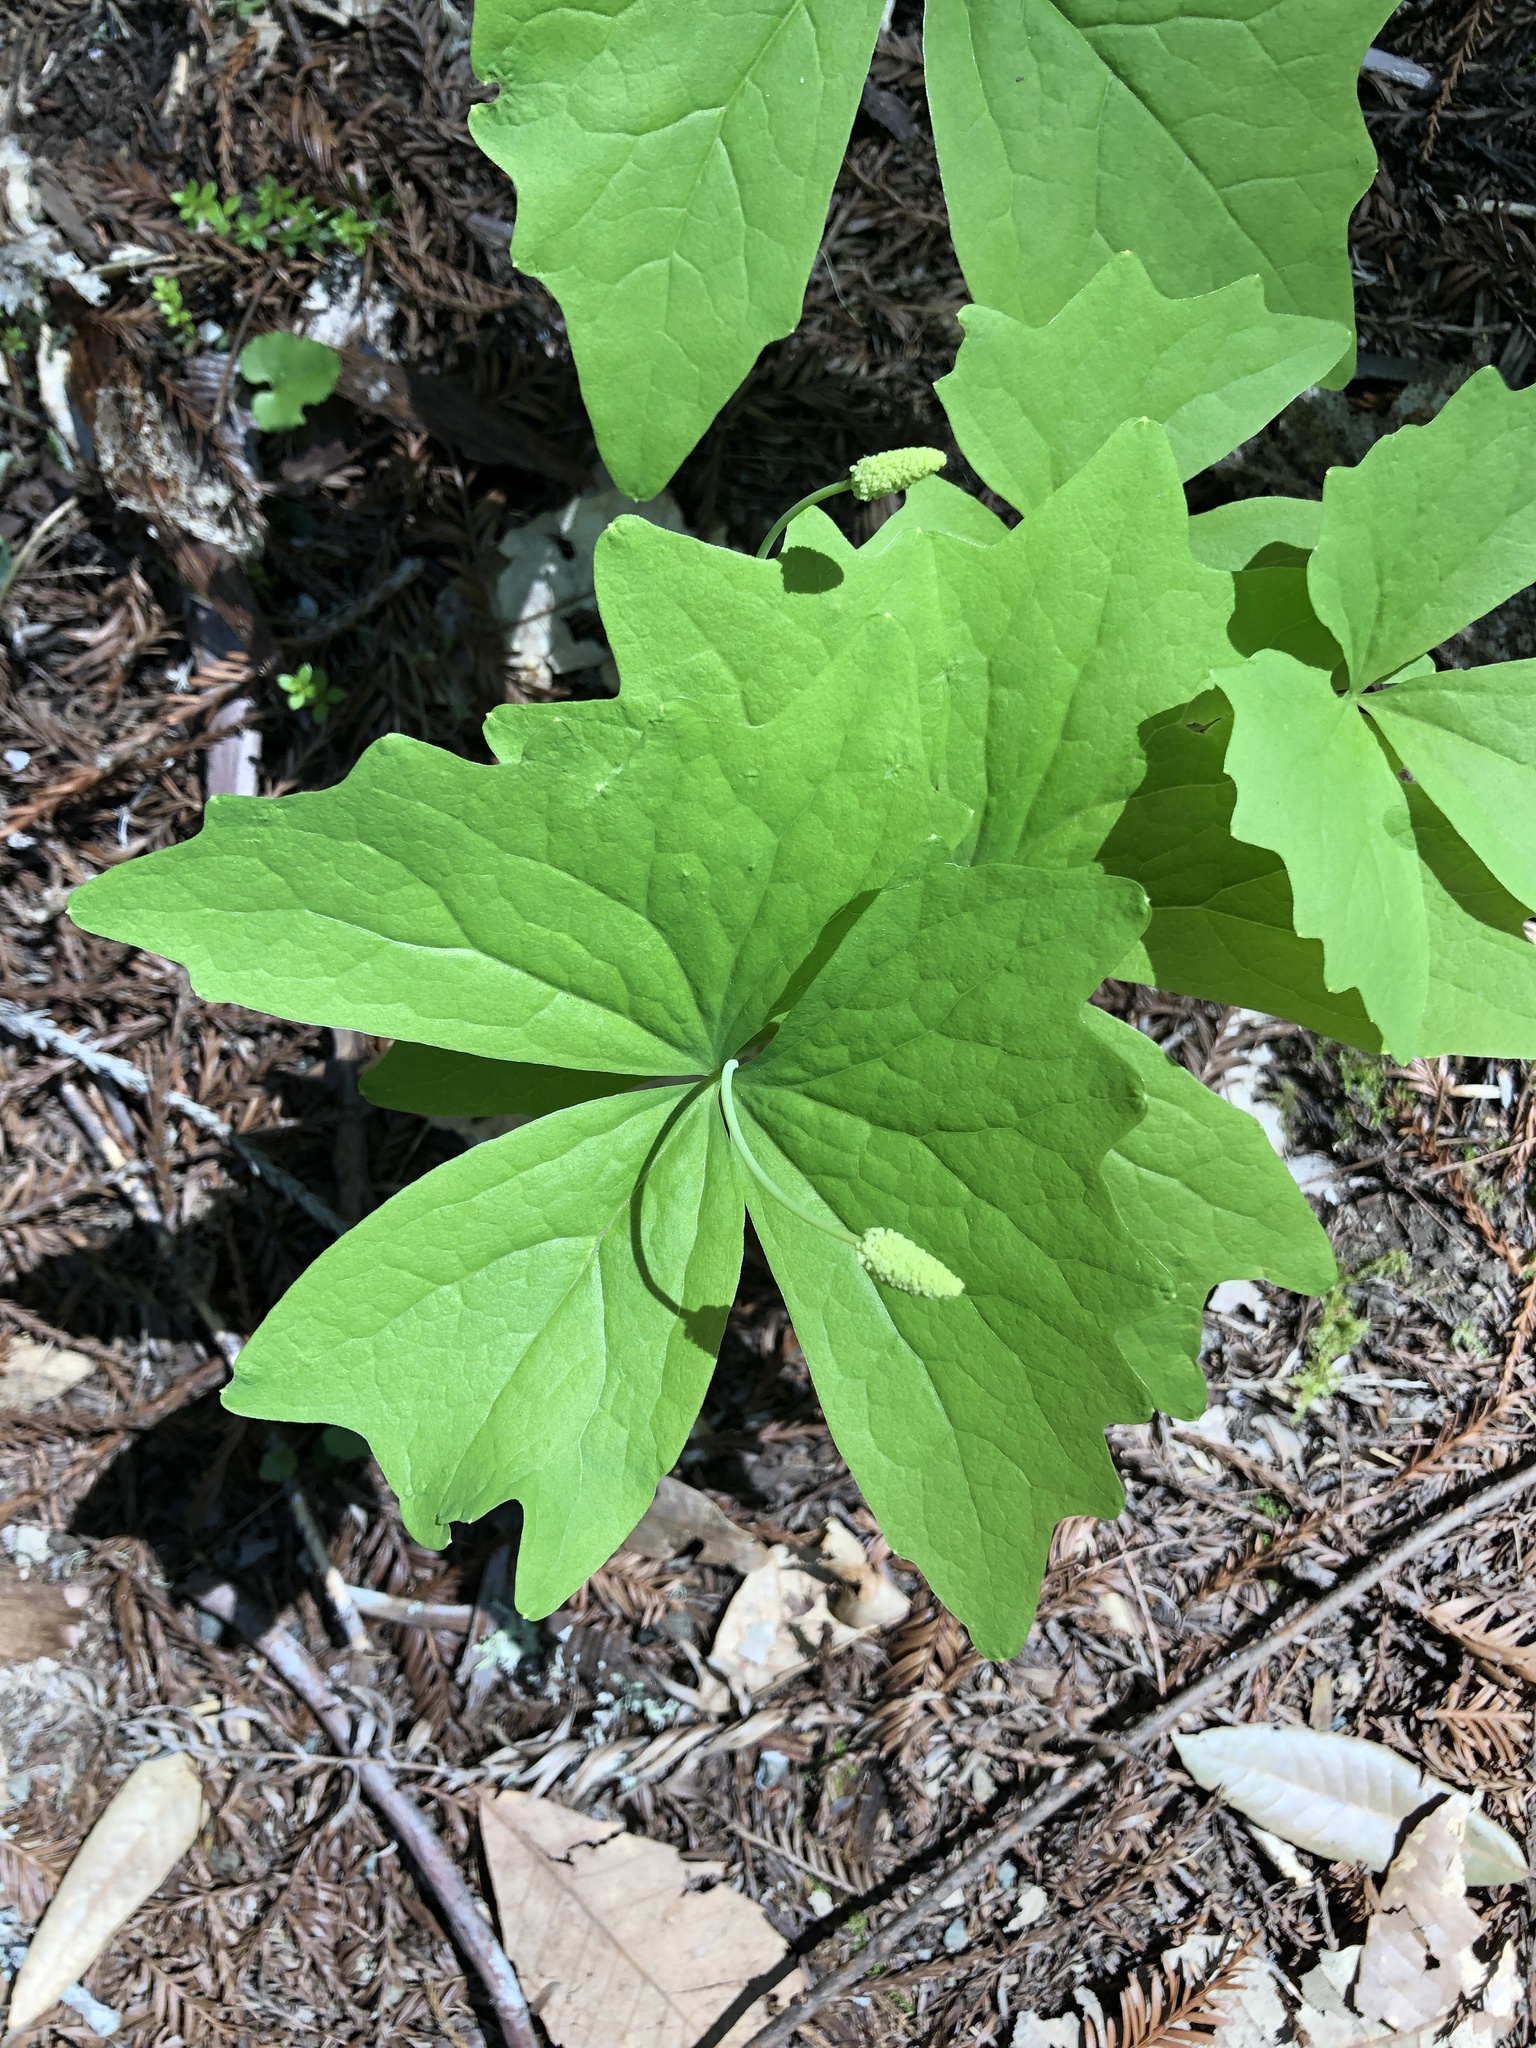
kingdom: Plantae
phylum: Tracheophyta
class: Magnoliopsida
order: Ranunculales
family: Berberidaceae
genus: Achlys
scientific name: Achlys triphylla
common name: Vanilla-leaf
